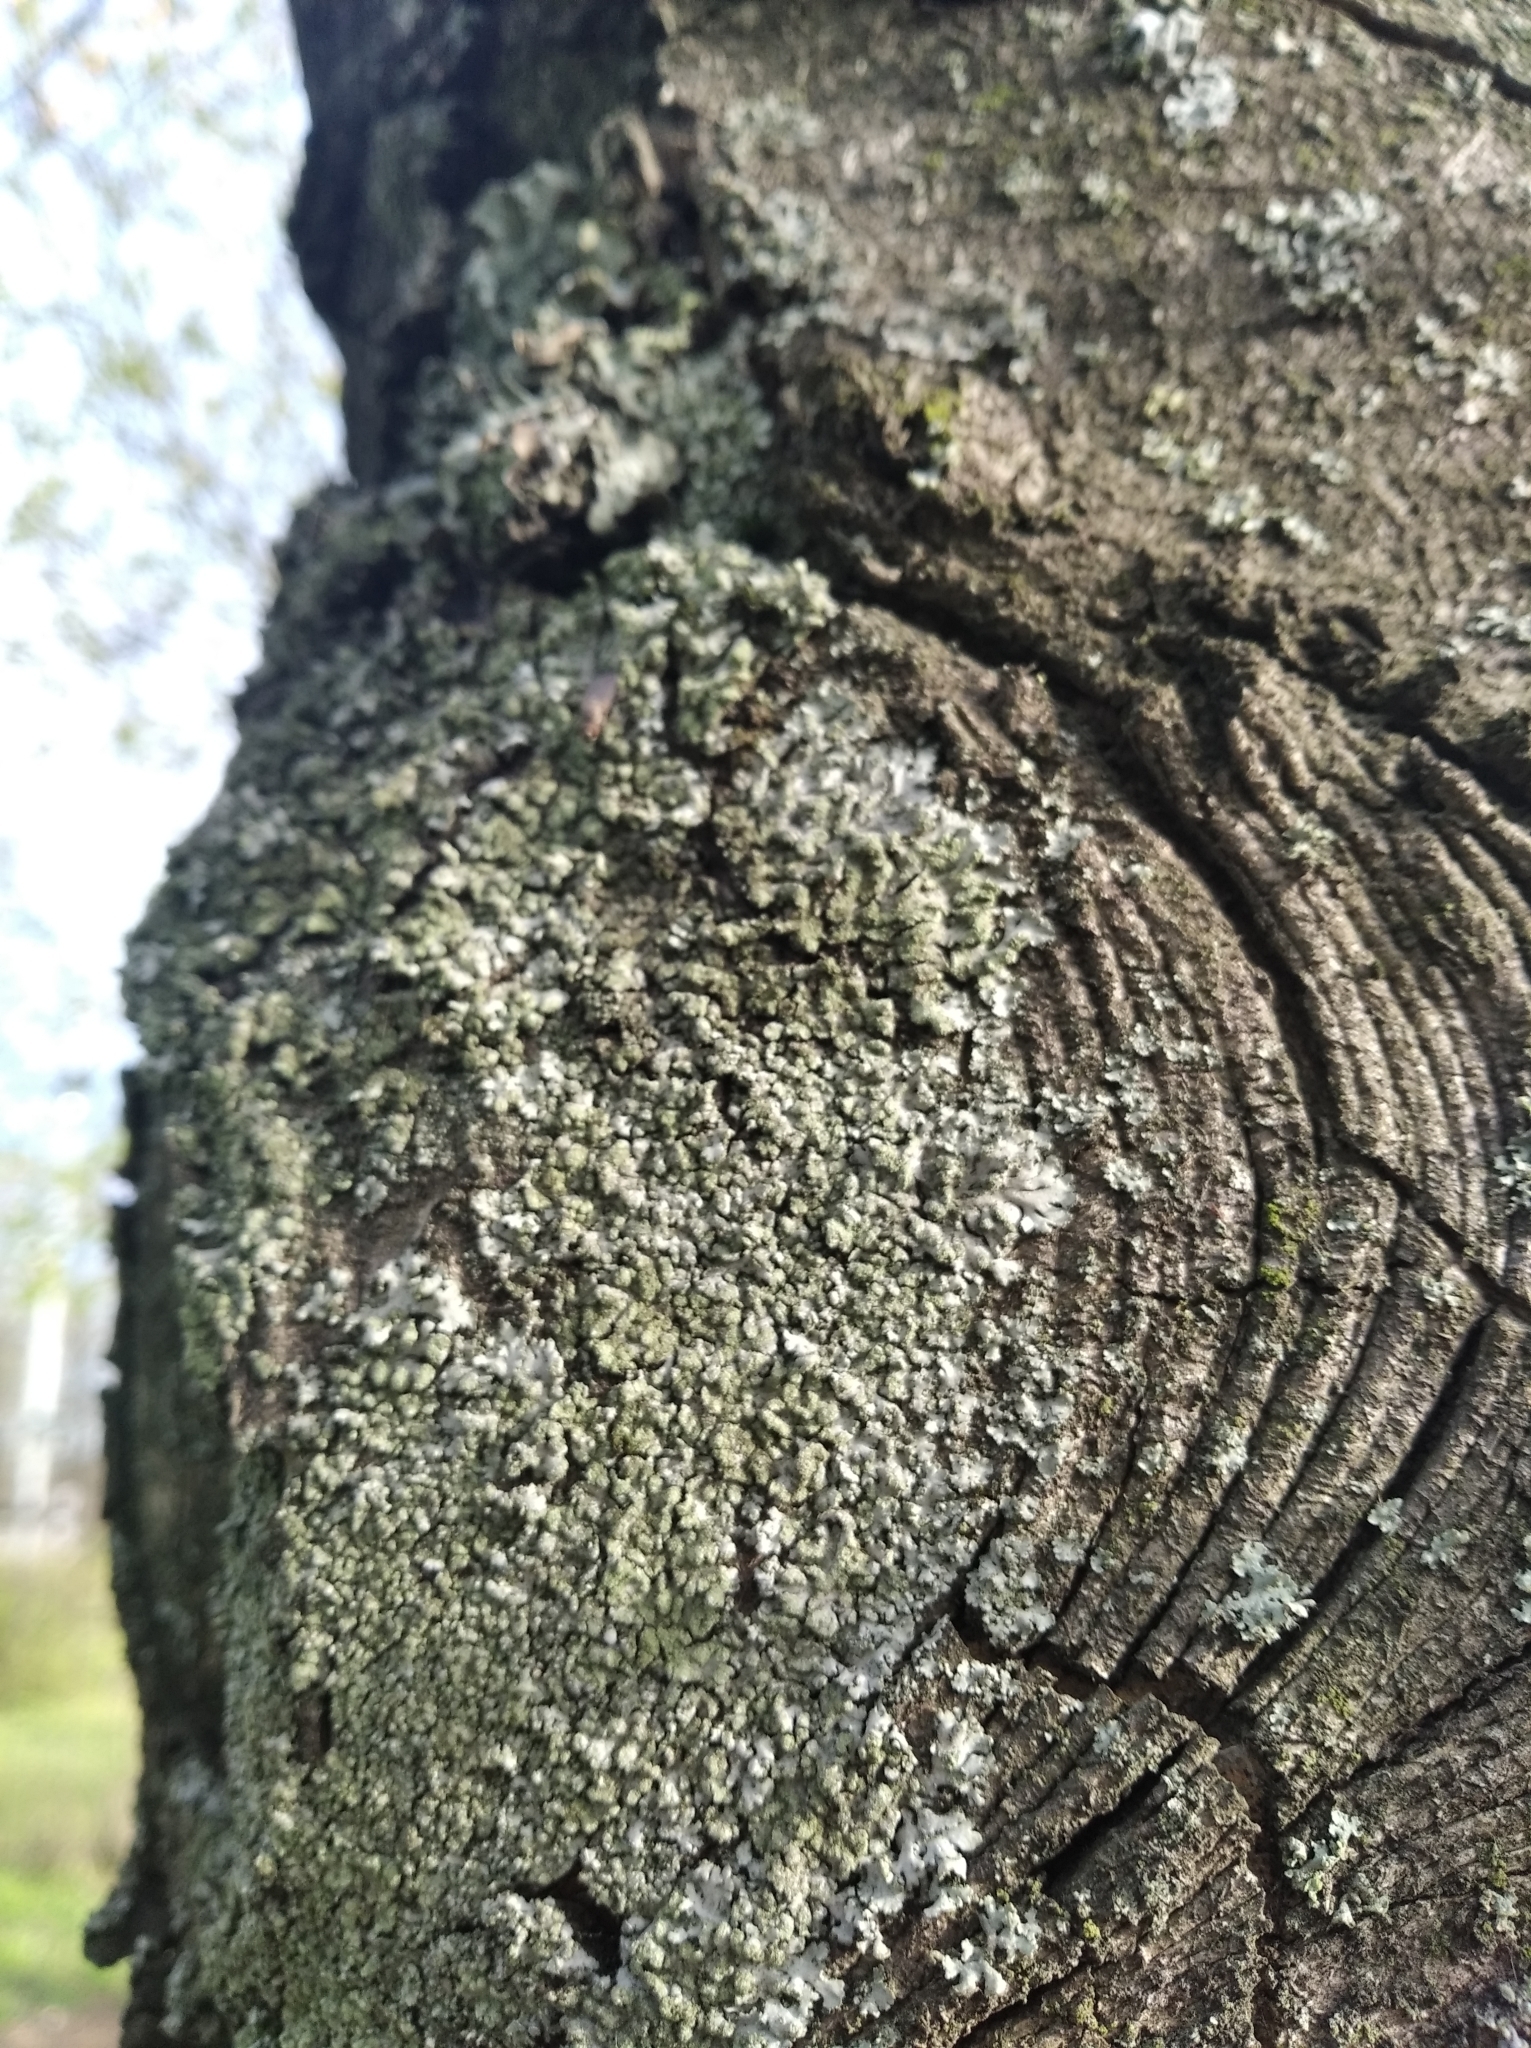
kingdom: Fungi
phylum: Ascomycota
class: Lecanoromycetes
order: Caliciales
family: Physciaceae
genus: Phaeophyscia
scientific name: Phaeophyscia orbicularis
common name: Mealy shadow lichen
